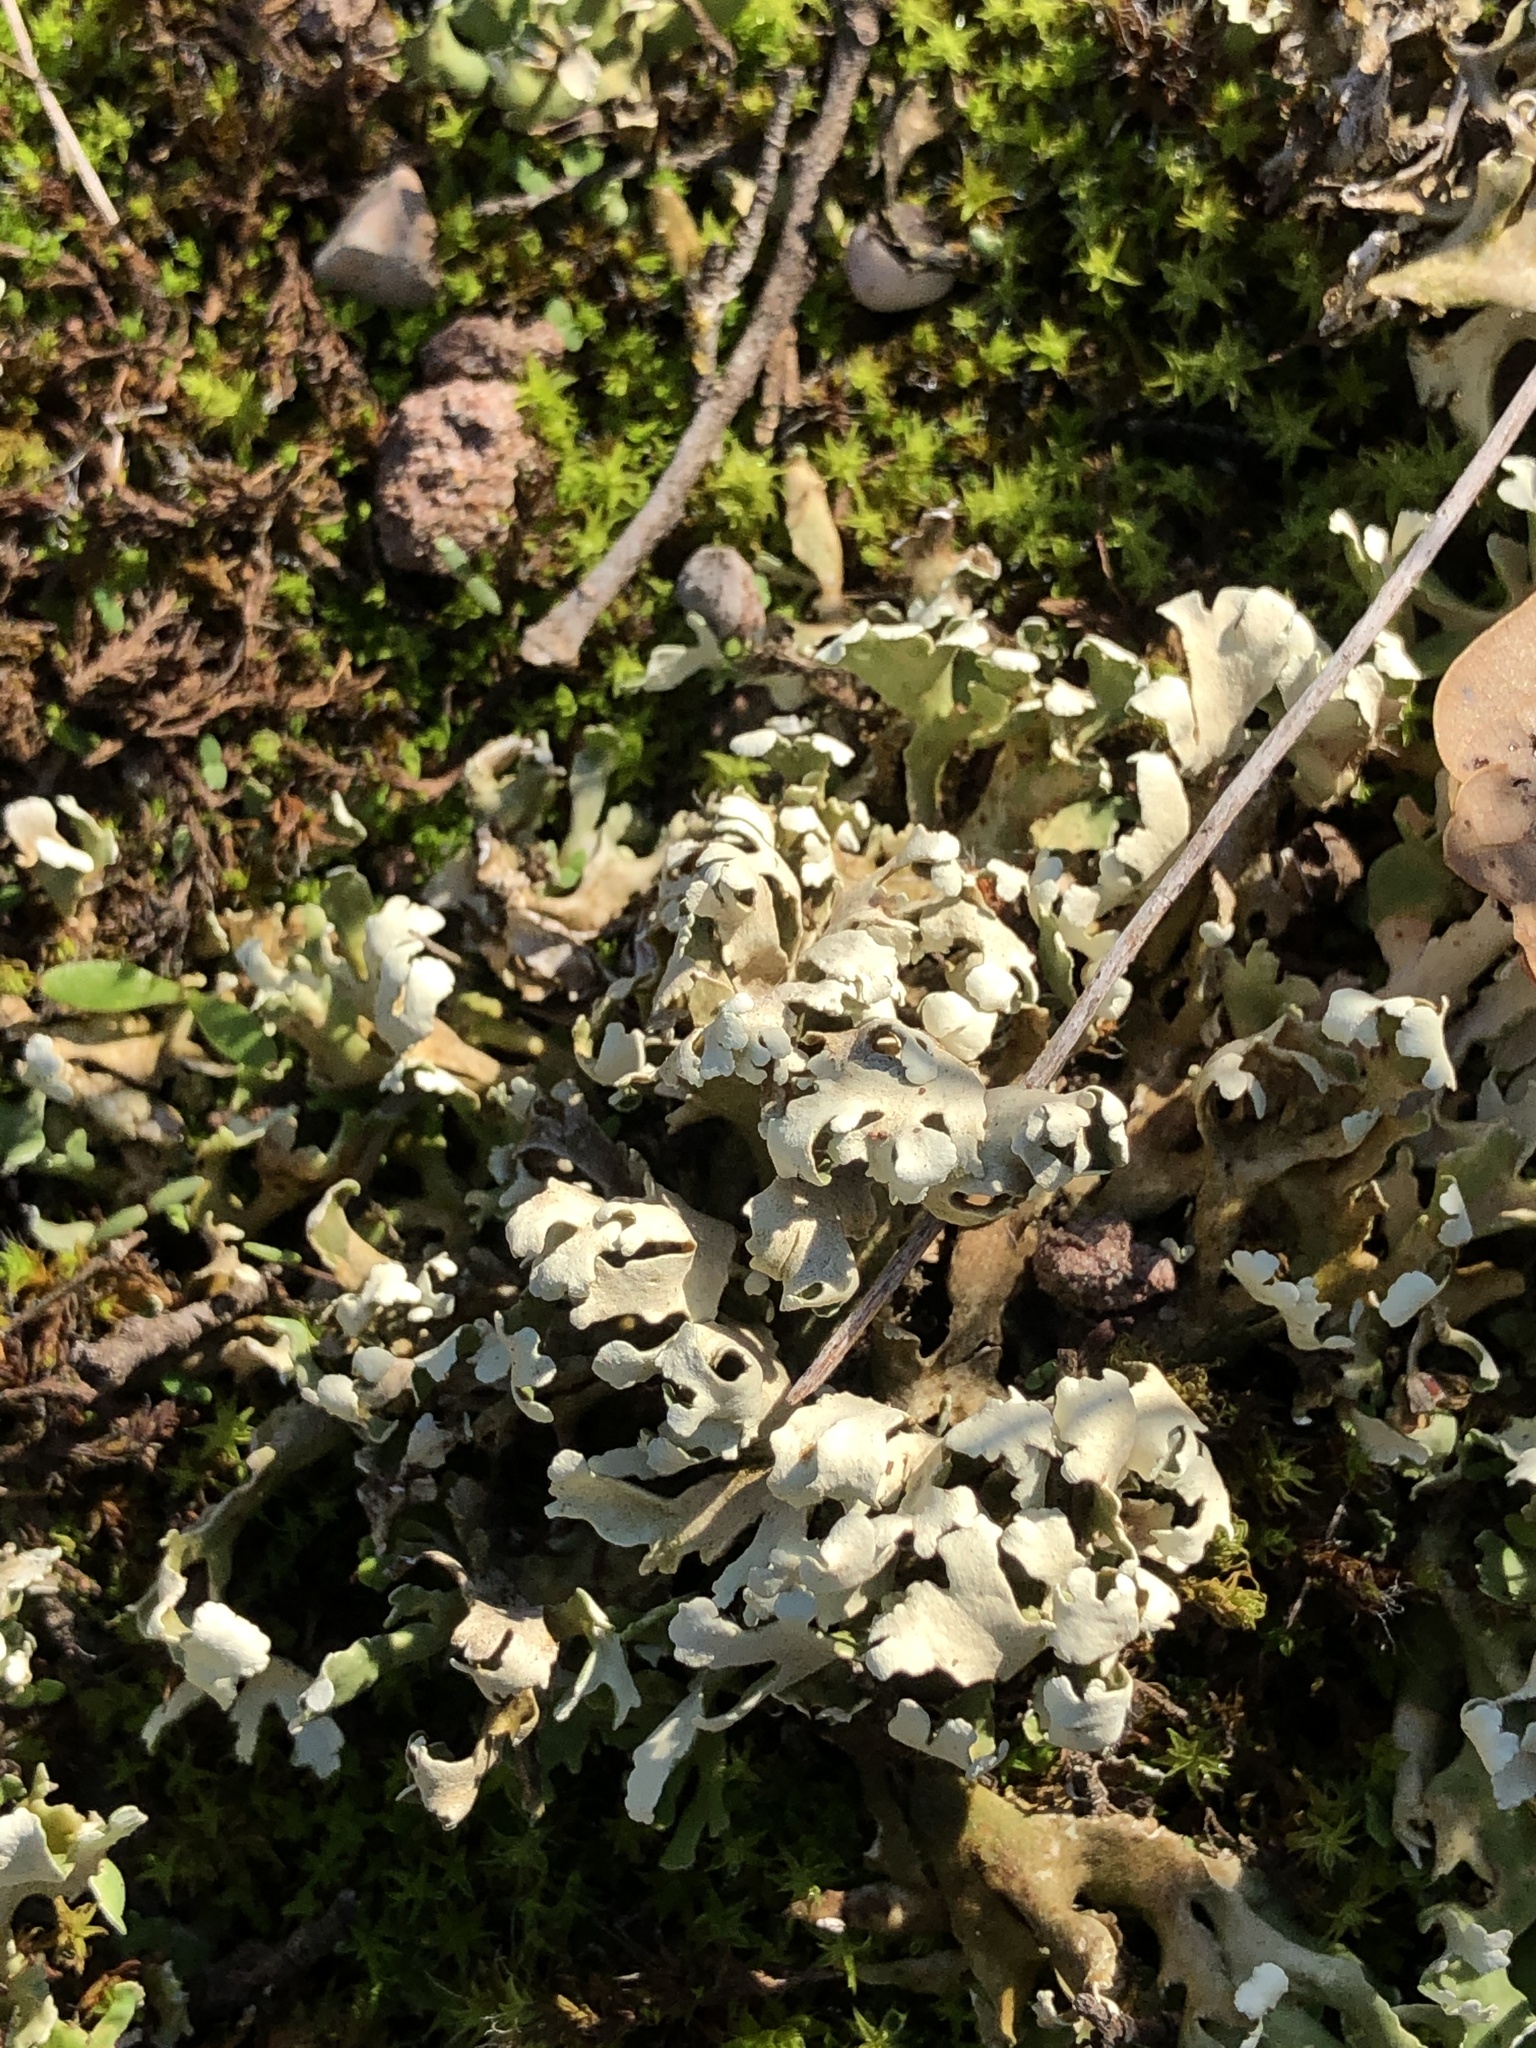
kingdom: Fungi
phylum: Ascomycota
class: Lecanoromycetes
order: Lecanorales
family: Cladoniaceae
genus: Cladonia
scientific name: Cladonia foliacea
